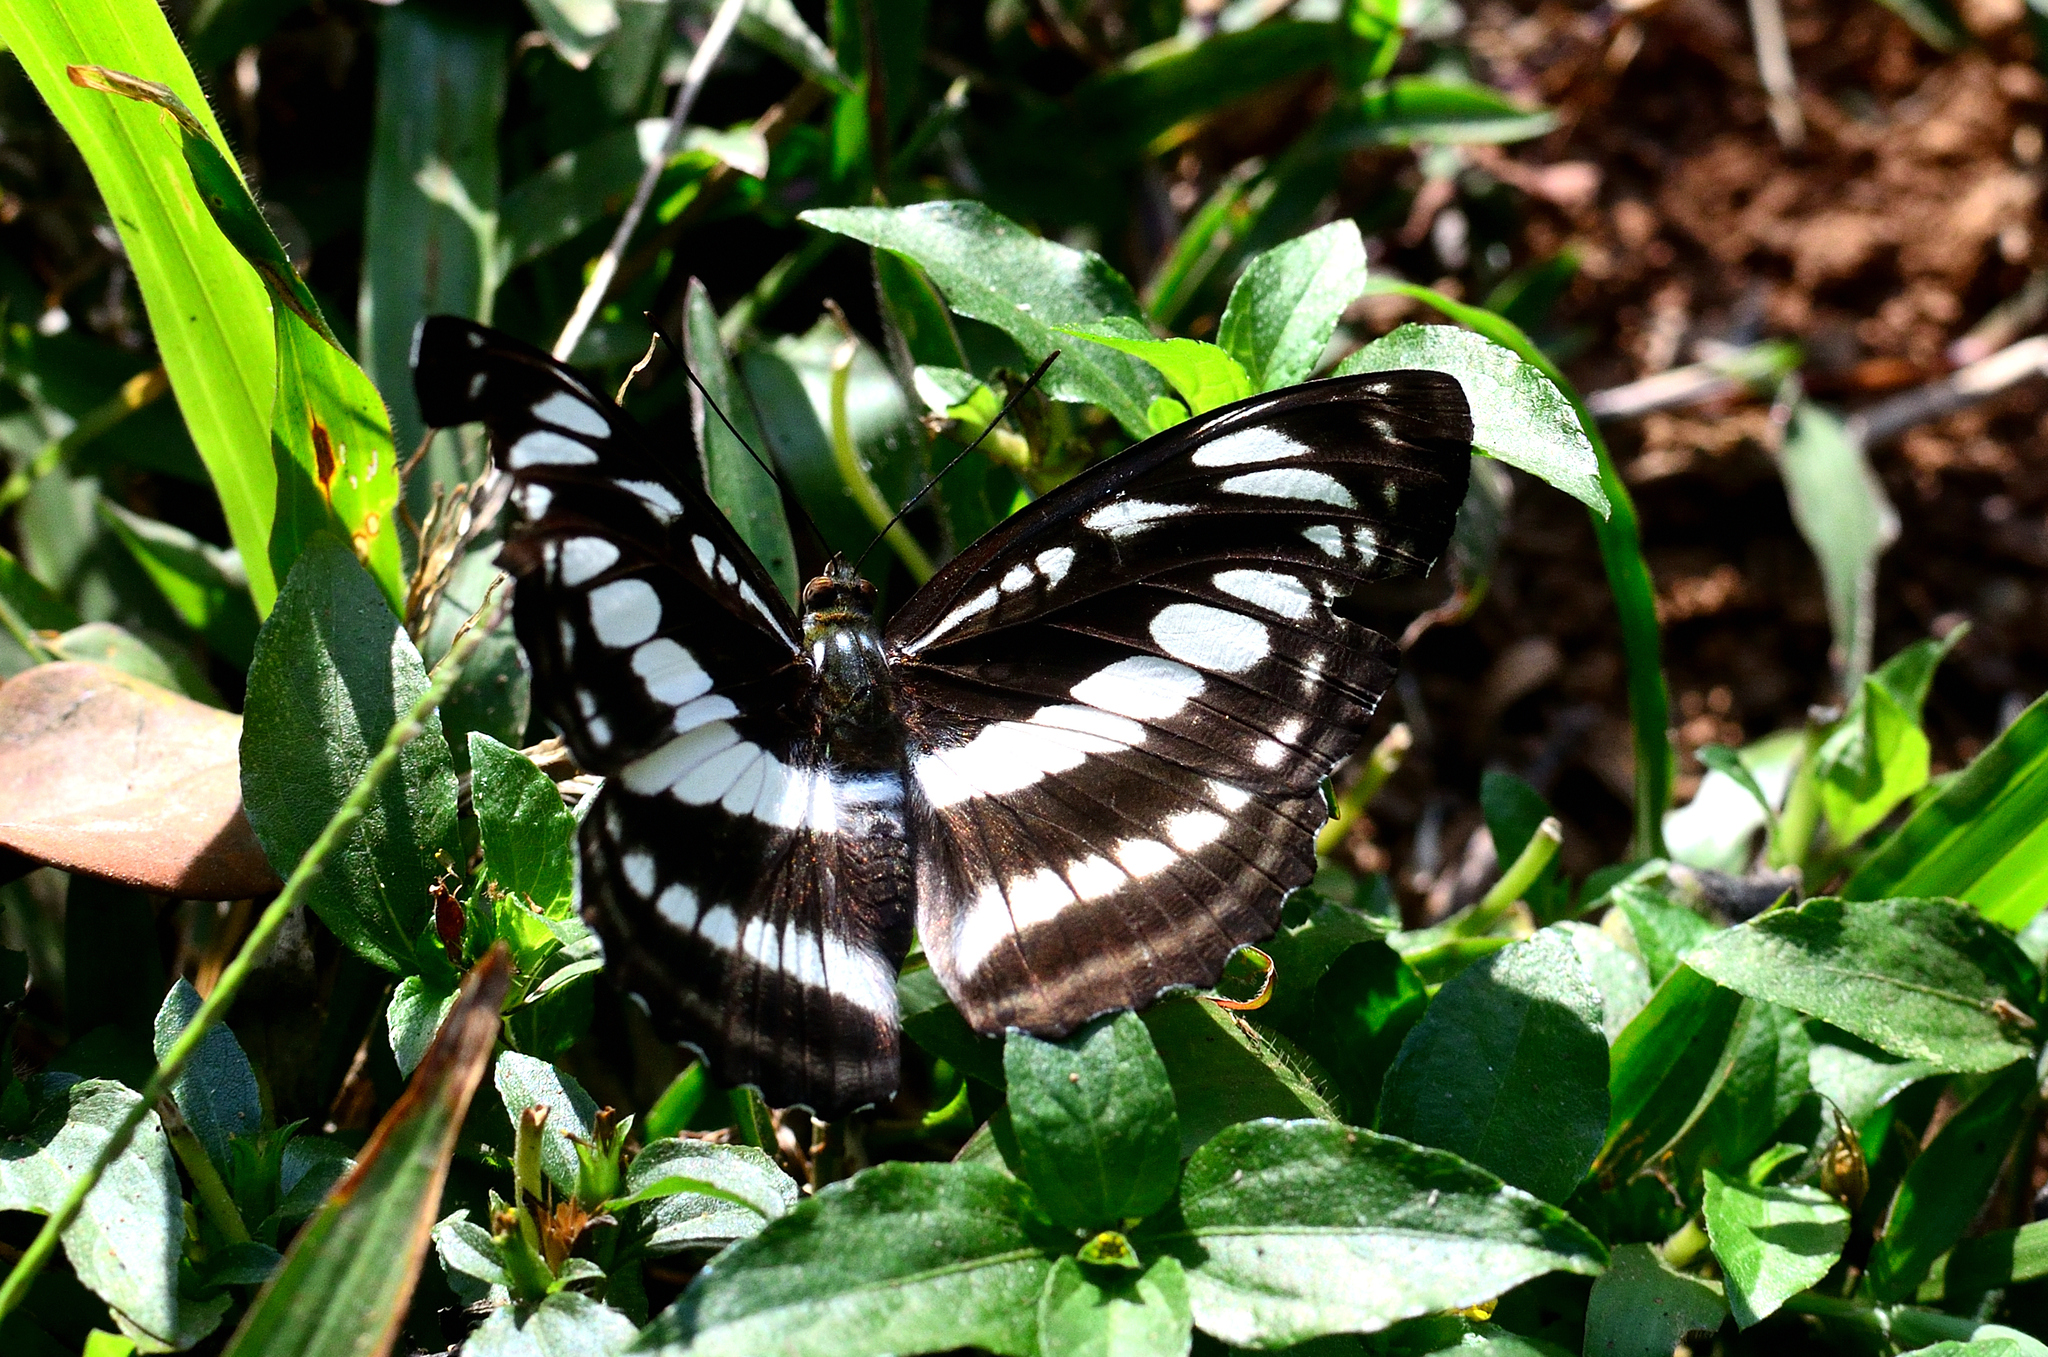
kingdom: Animalia
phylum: Arthropoda
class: Insecta
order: Lepidoptera
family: Nymphalidae
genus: Parathyma
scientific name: Parathyma perius
